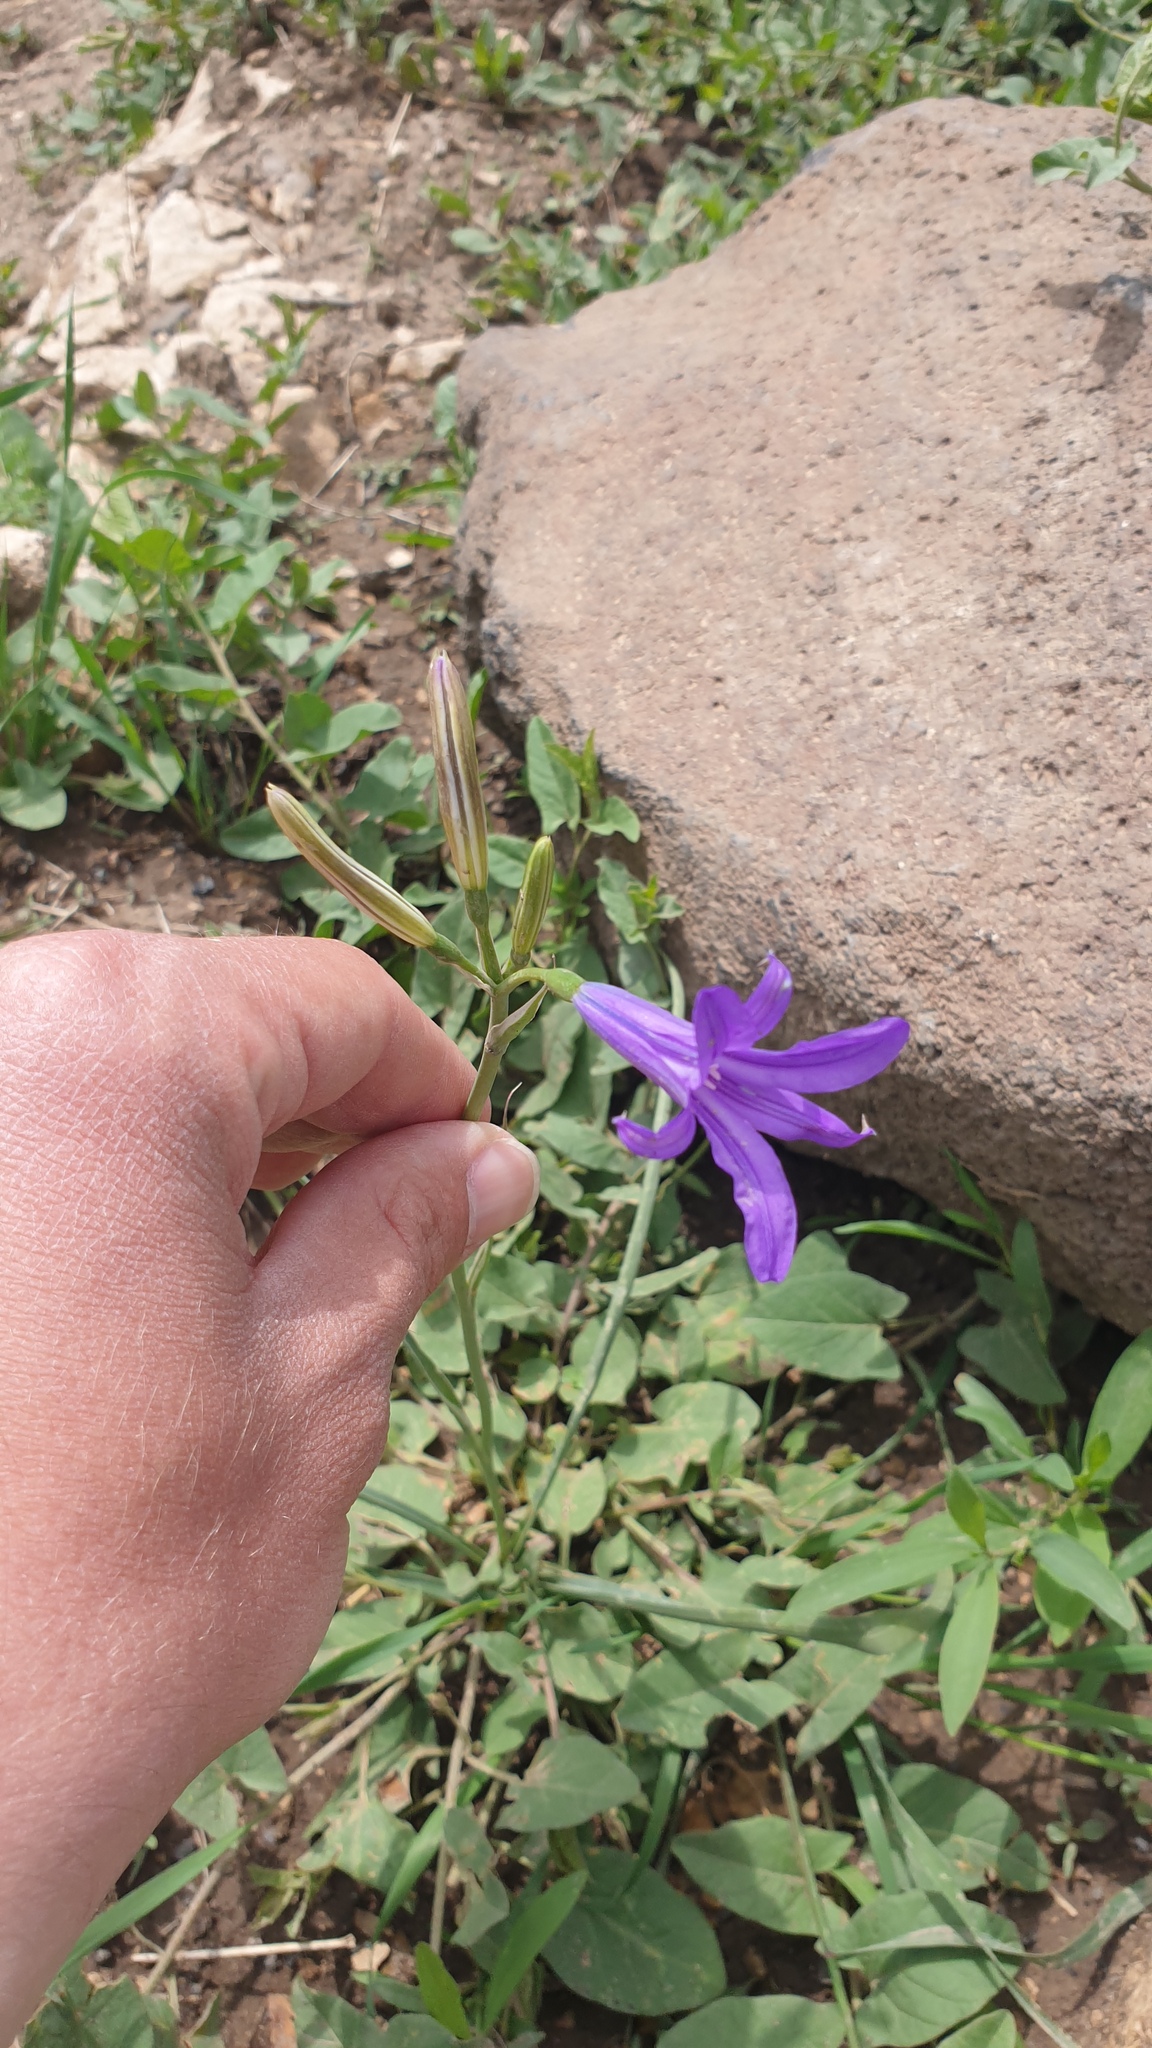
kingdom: Plantae
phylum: Tracheophyta
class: Liliopsida
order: Asparagales
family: Ixioliriaceae
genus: Ixiolirion
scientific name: Ixiolirion tataricum
